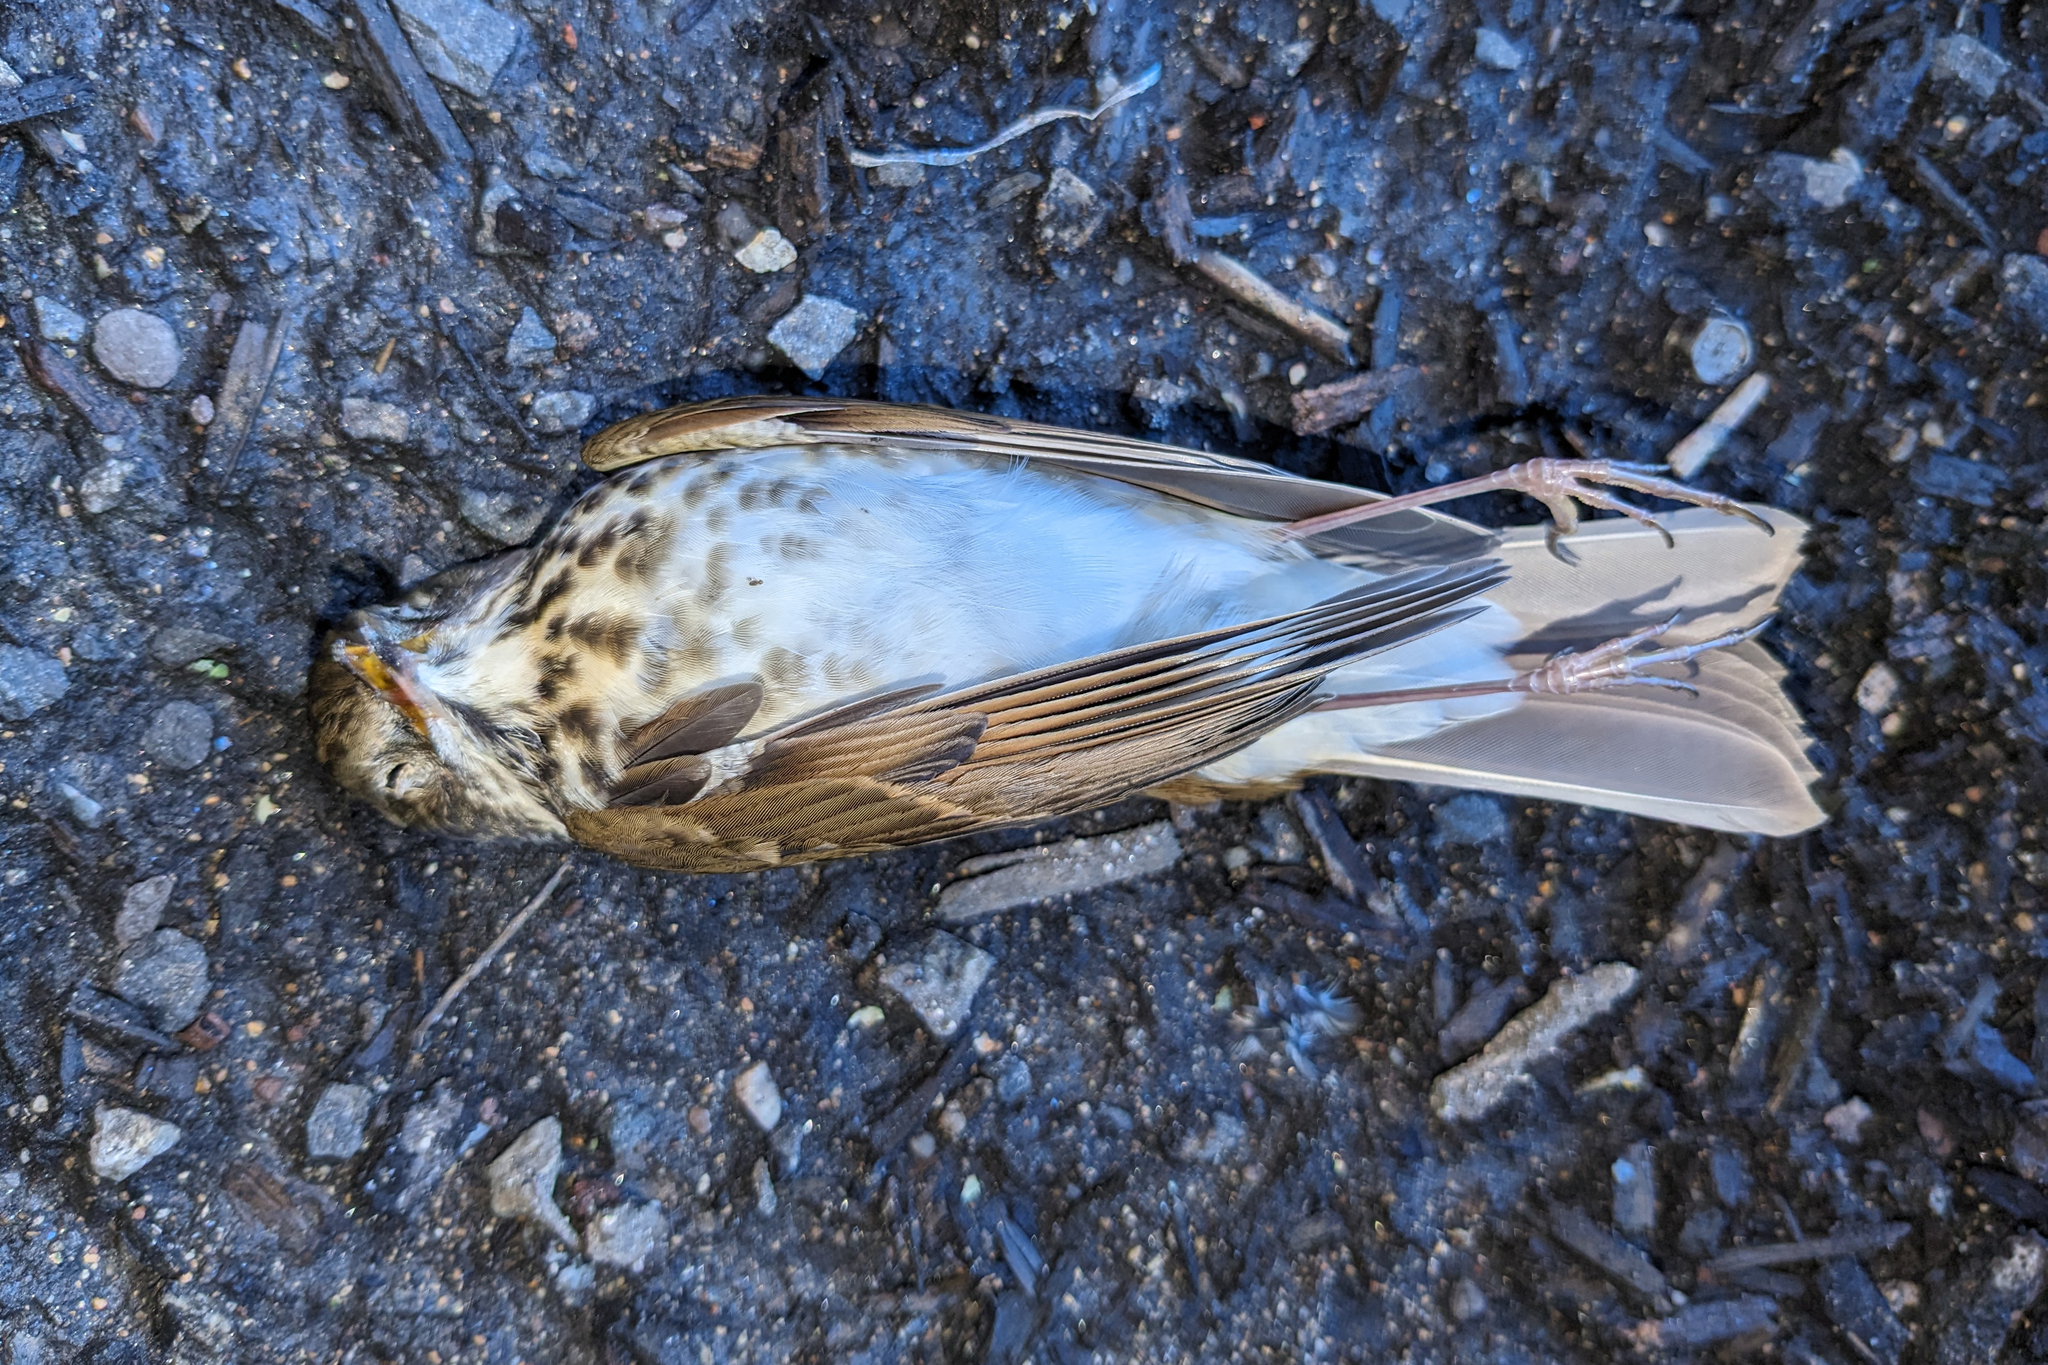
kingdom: Animalia
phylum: Chordata
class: Aves
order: Passeriformes
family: Turdidae
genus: Catharus
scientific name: Catharus guttatus
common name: Hermit thrush
